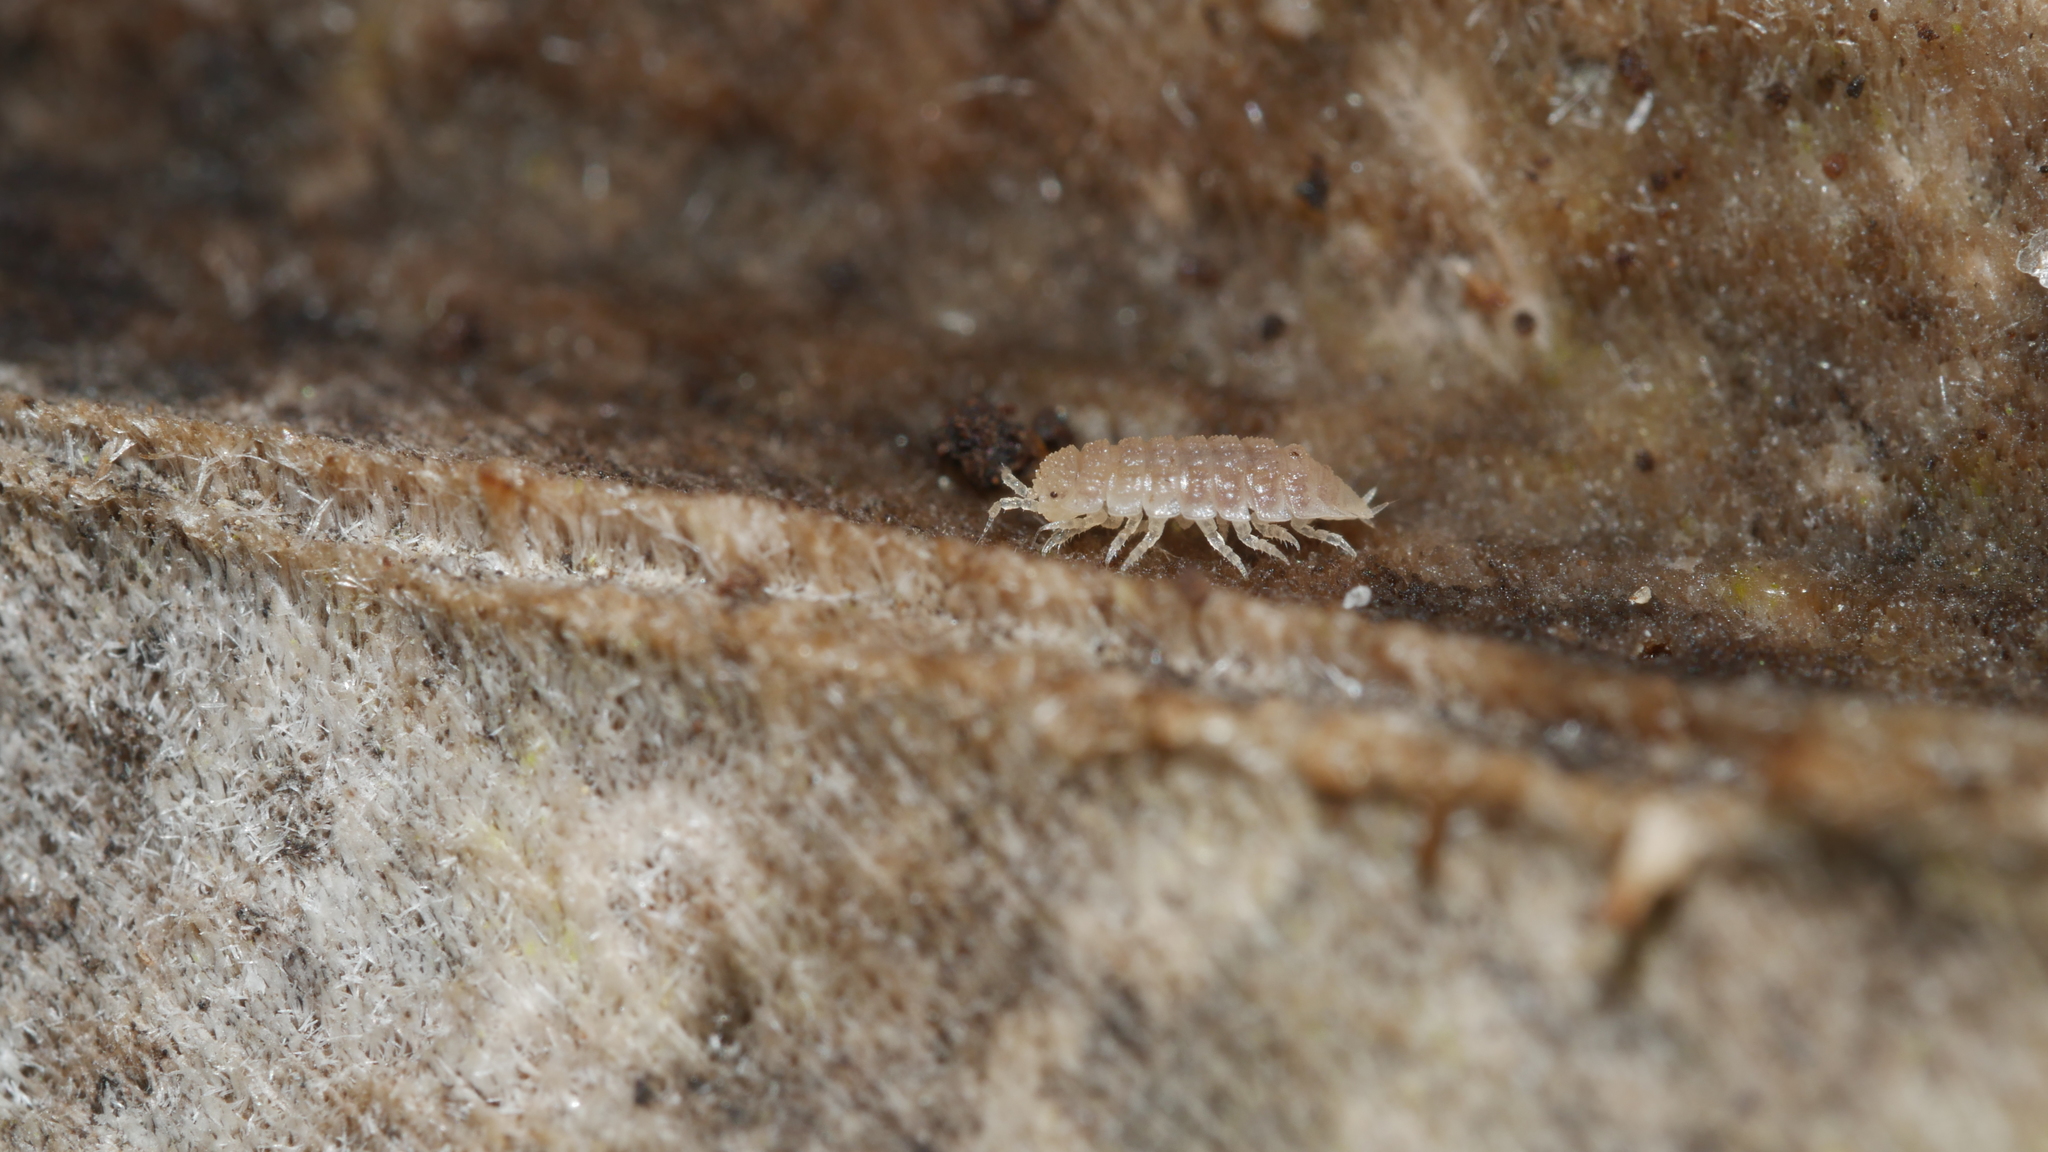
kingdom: Animalia
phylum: Arthropoda
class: Malacostraca
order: Isopoda
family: Trichoniscidae
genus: Haplophthalmus
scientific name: Haplophthalmus danicus
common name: Pillbug
